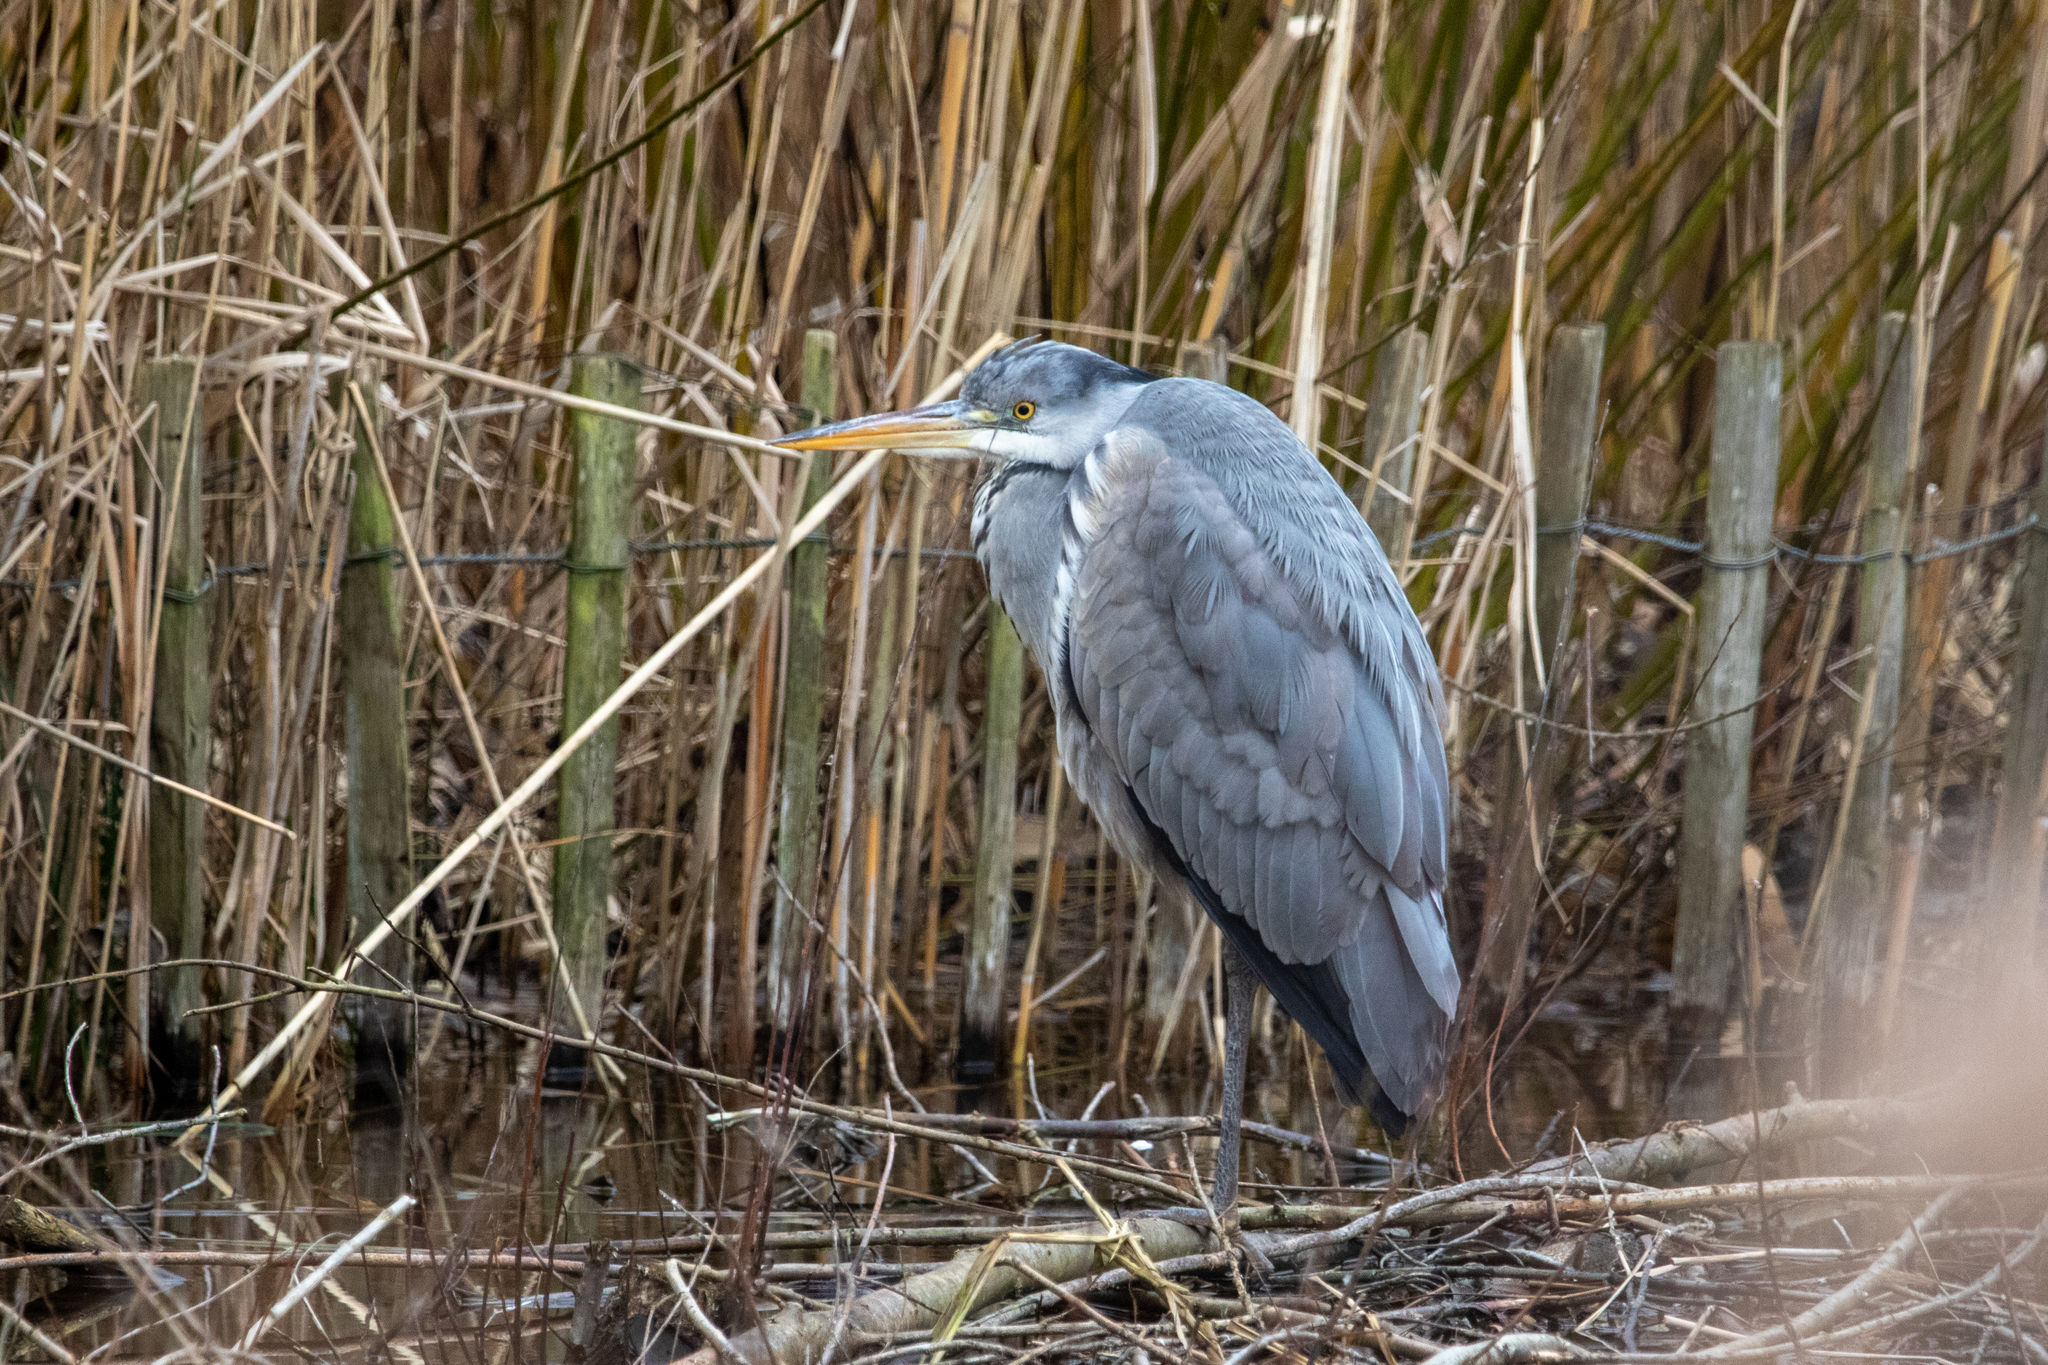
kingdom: Animalia
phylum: Chordata
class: Aves
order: Pelecaniformes
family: Ardeidae
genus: Ardea
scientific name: Ardea cinerea
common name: Grey heron
